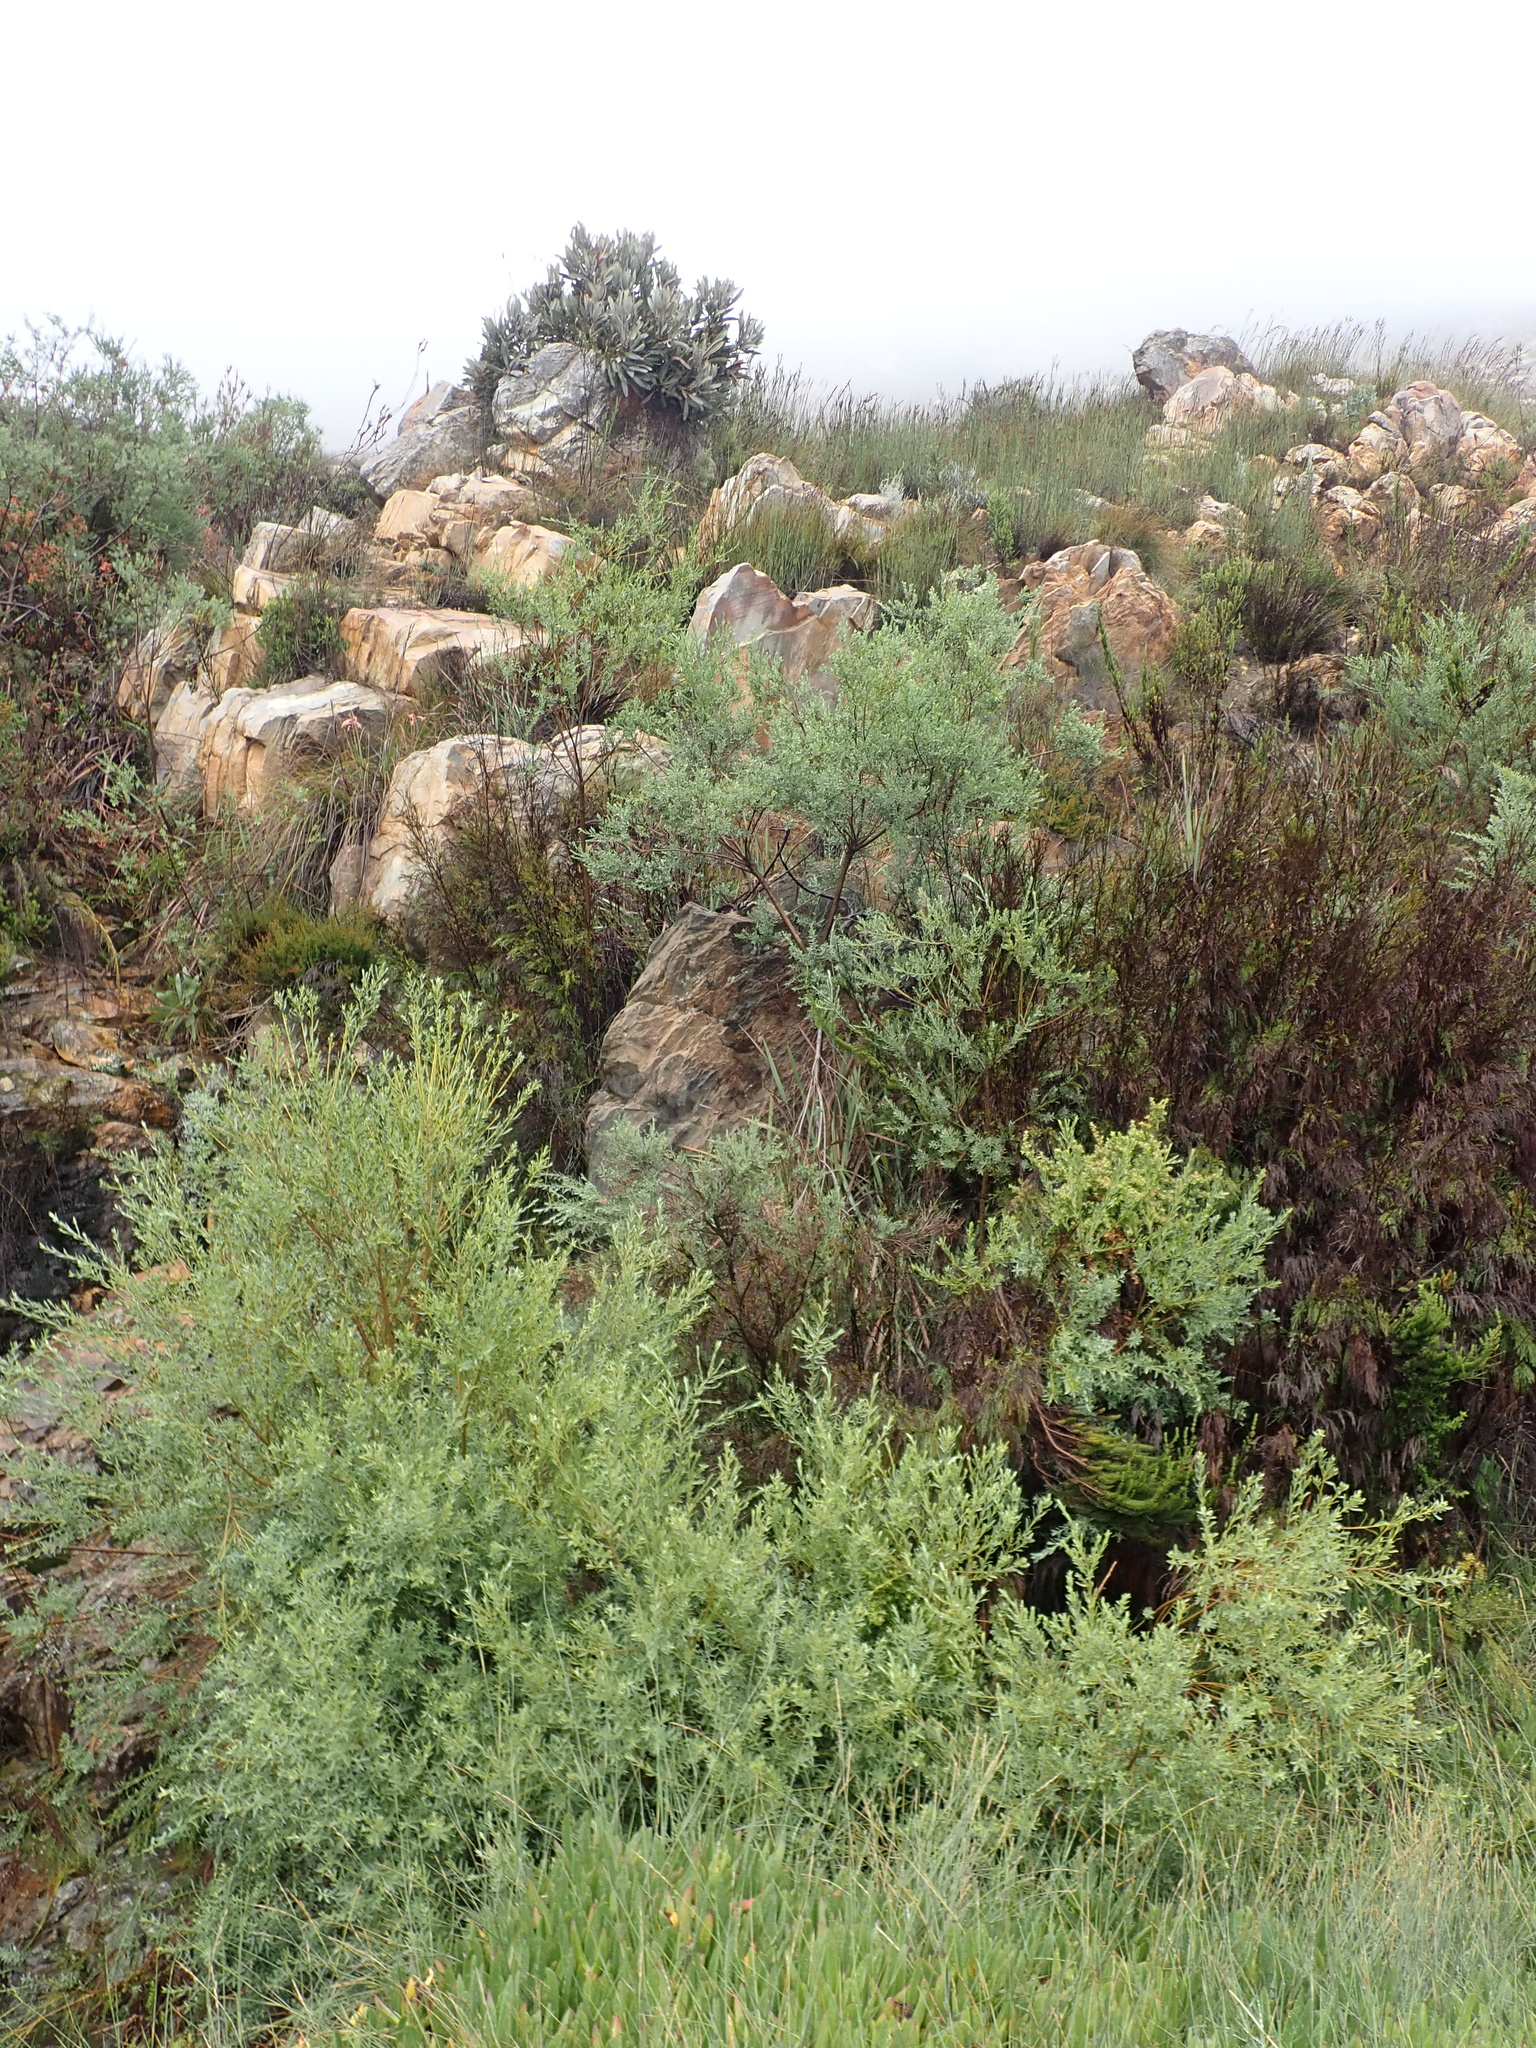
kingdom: Plantae
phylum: Tracheophyta
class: Magnoliopsida
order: Fabales
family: Fabaceae
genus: Liparia
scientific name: Liparia racemosa
